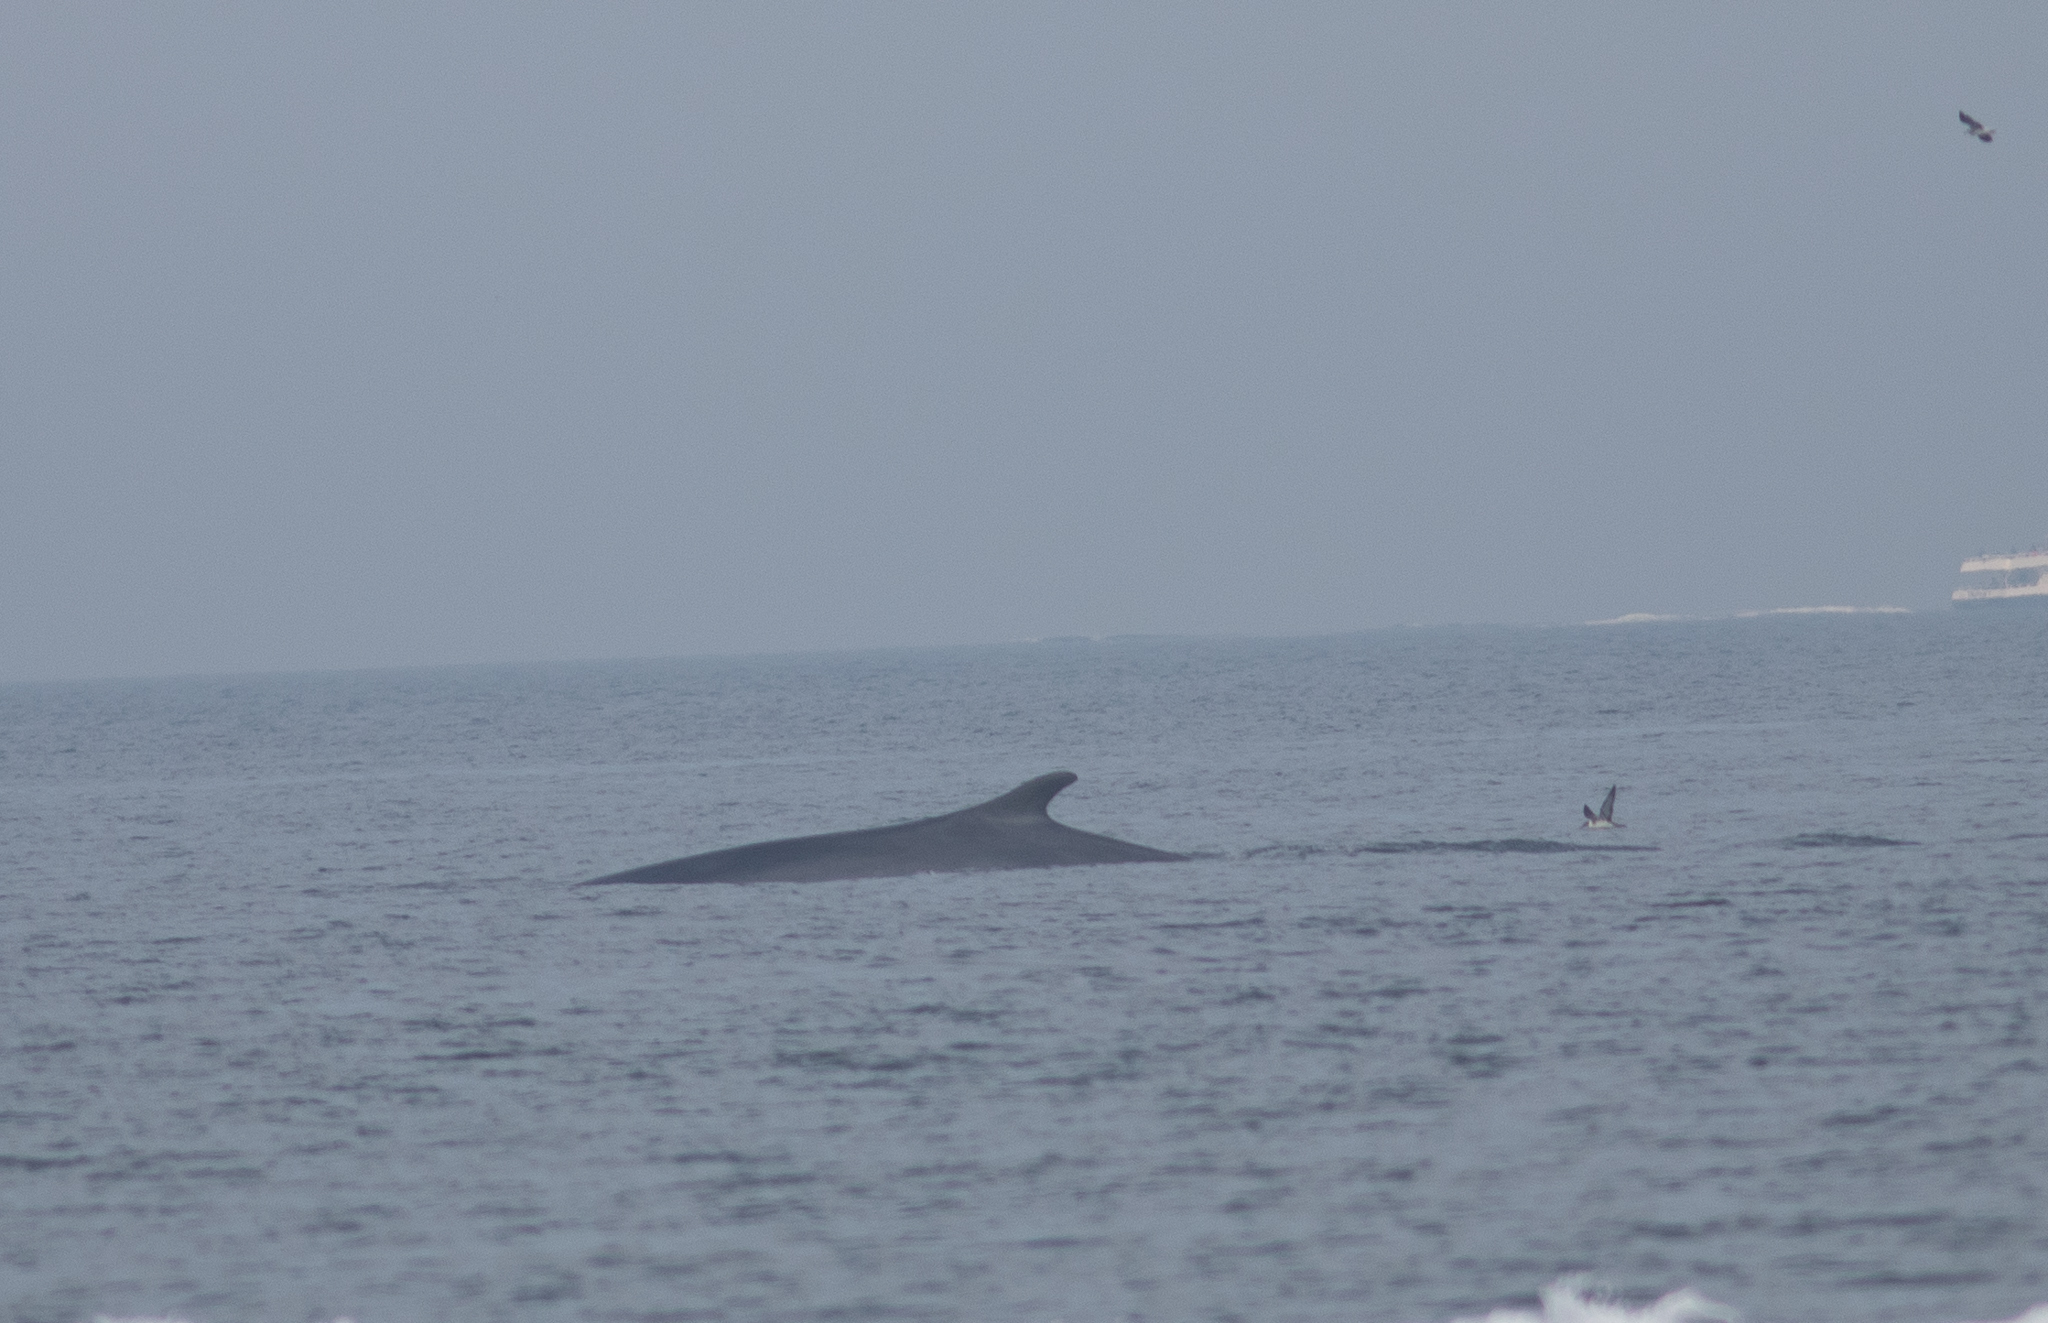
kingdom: Animalia
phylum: Chordata
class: Mammalia
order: Cetacea
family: Balaenopteridae
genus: Balaenoptera
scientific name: Balaenoptera physalus
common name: Fin whale
